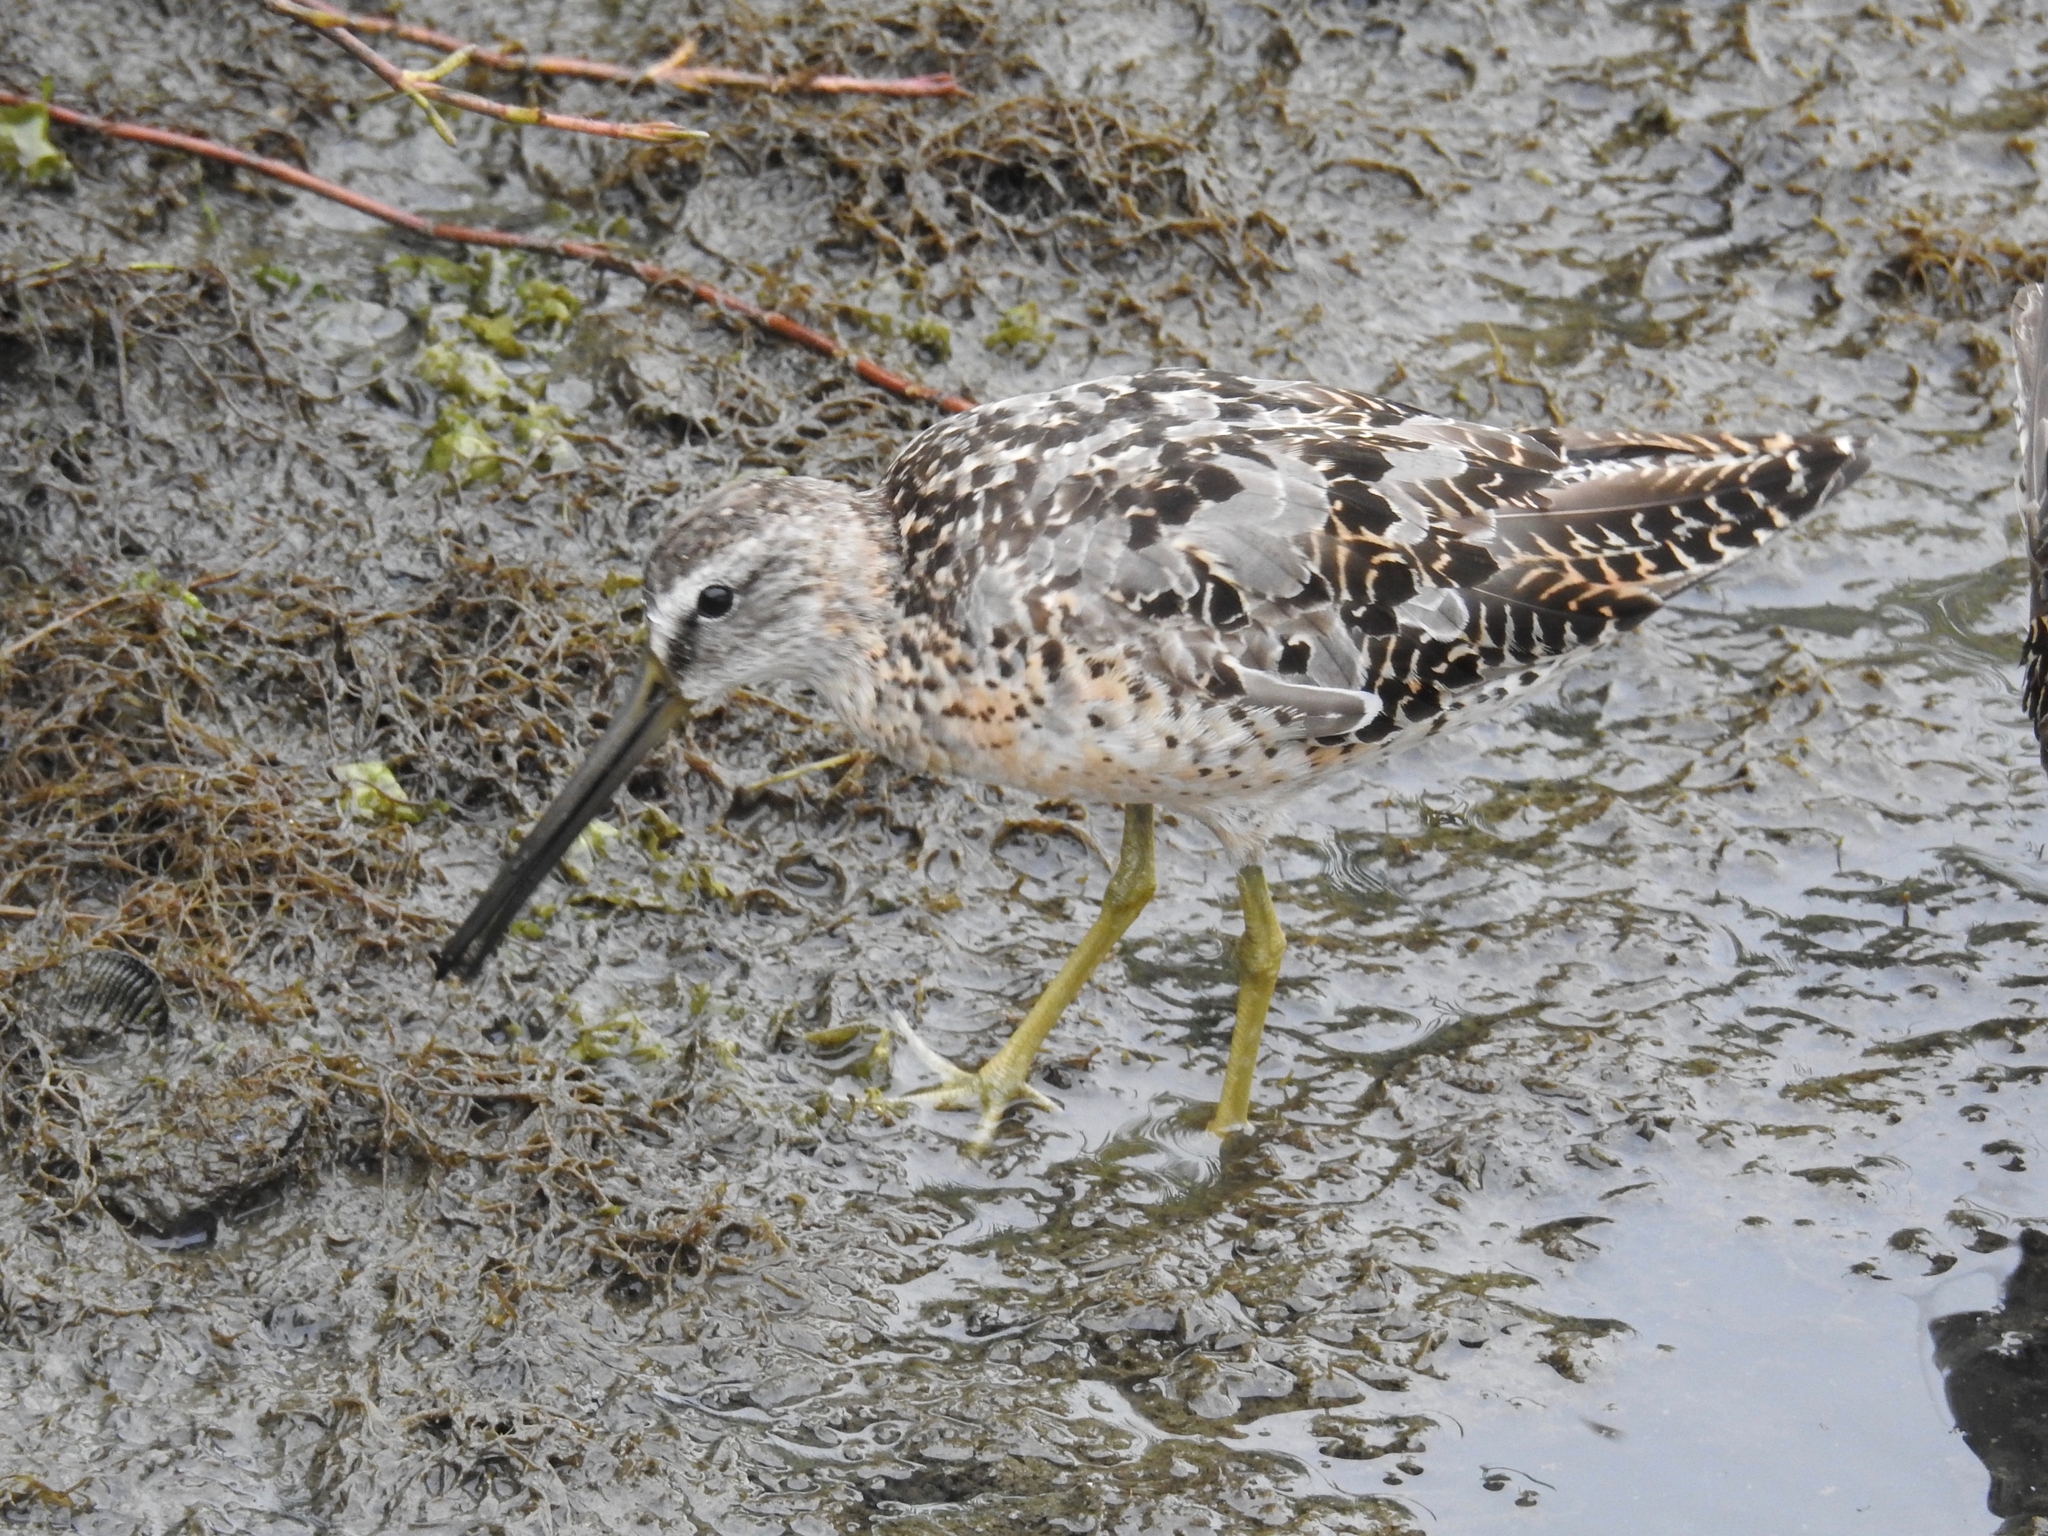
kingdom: Animalia
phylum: Chordata
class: Aves
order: Charadriiformes
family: Scolopacidae
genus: Limnodromus
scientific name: Limnodromus griseus
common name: Short-billed dowitcher
